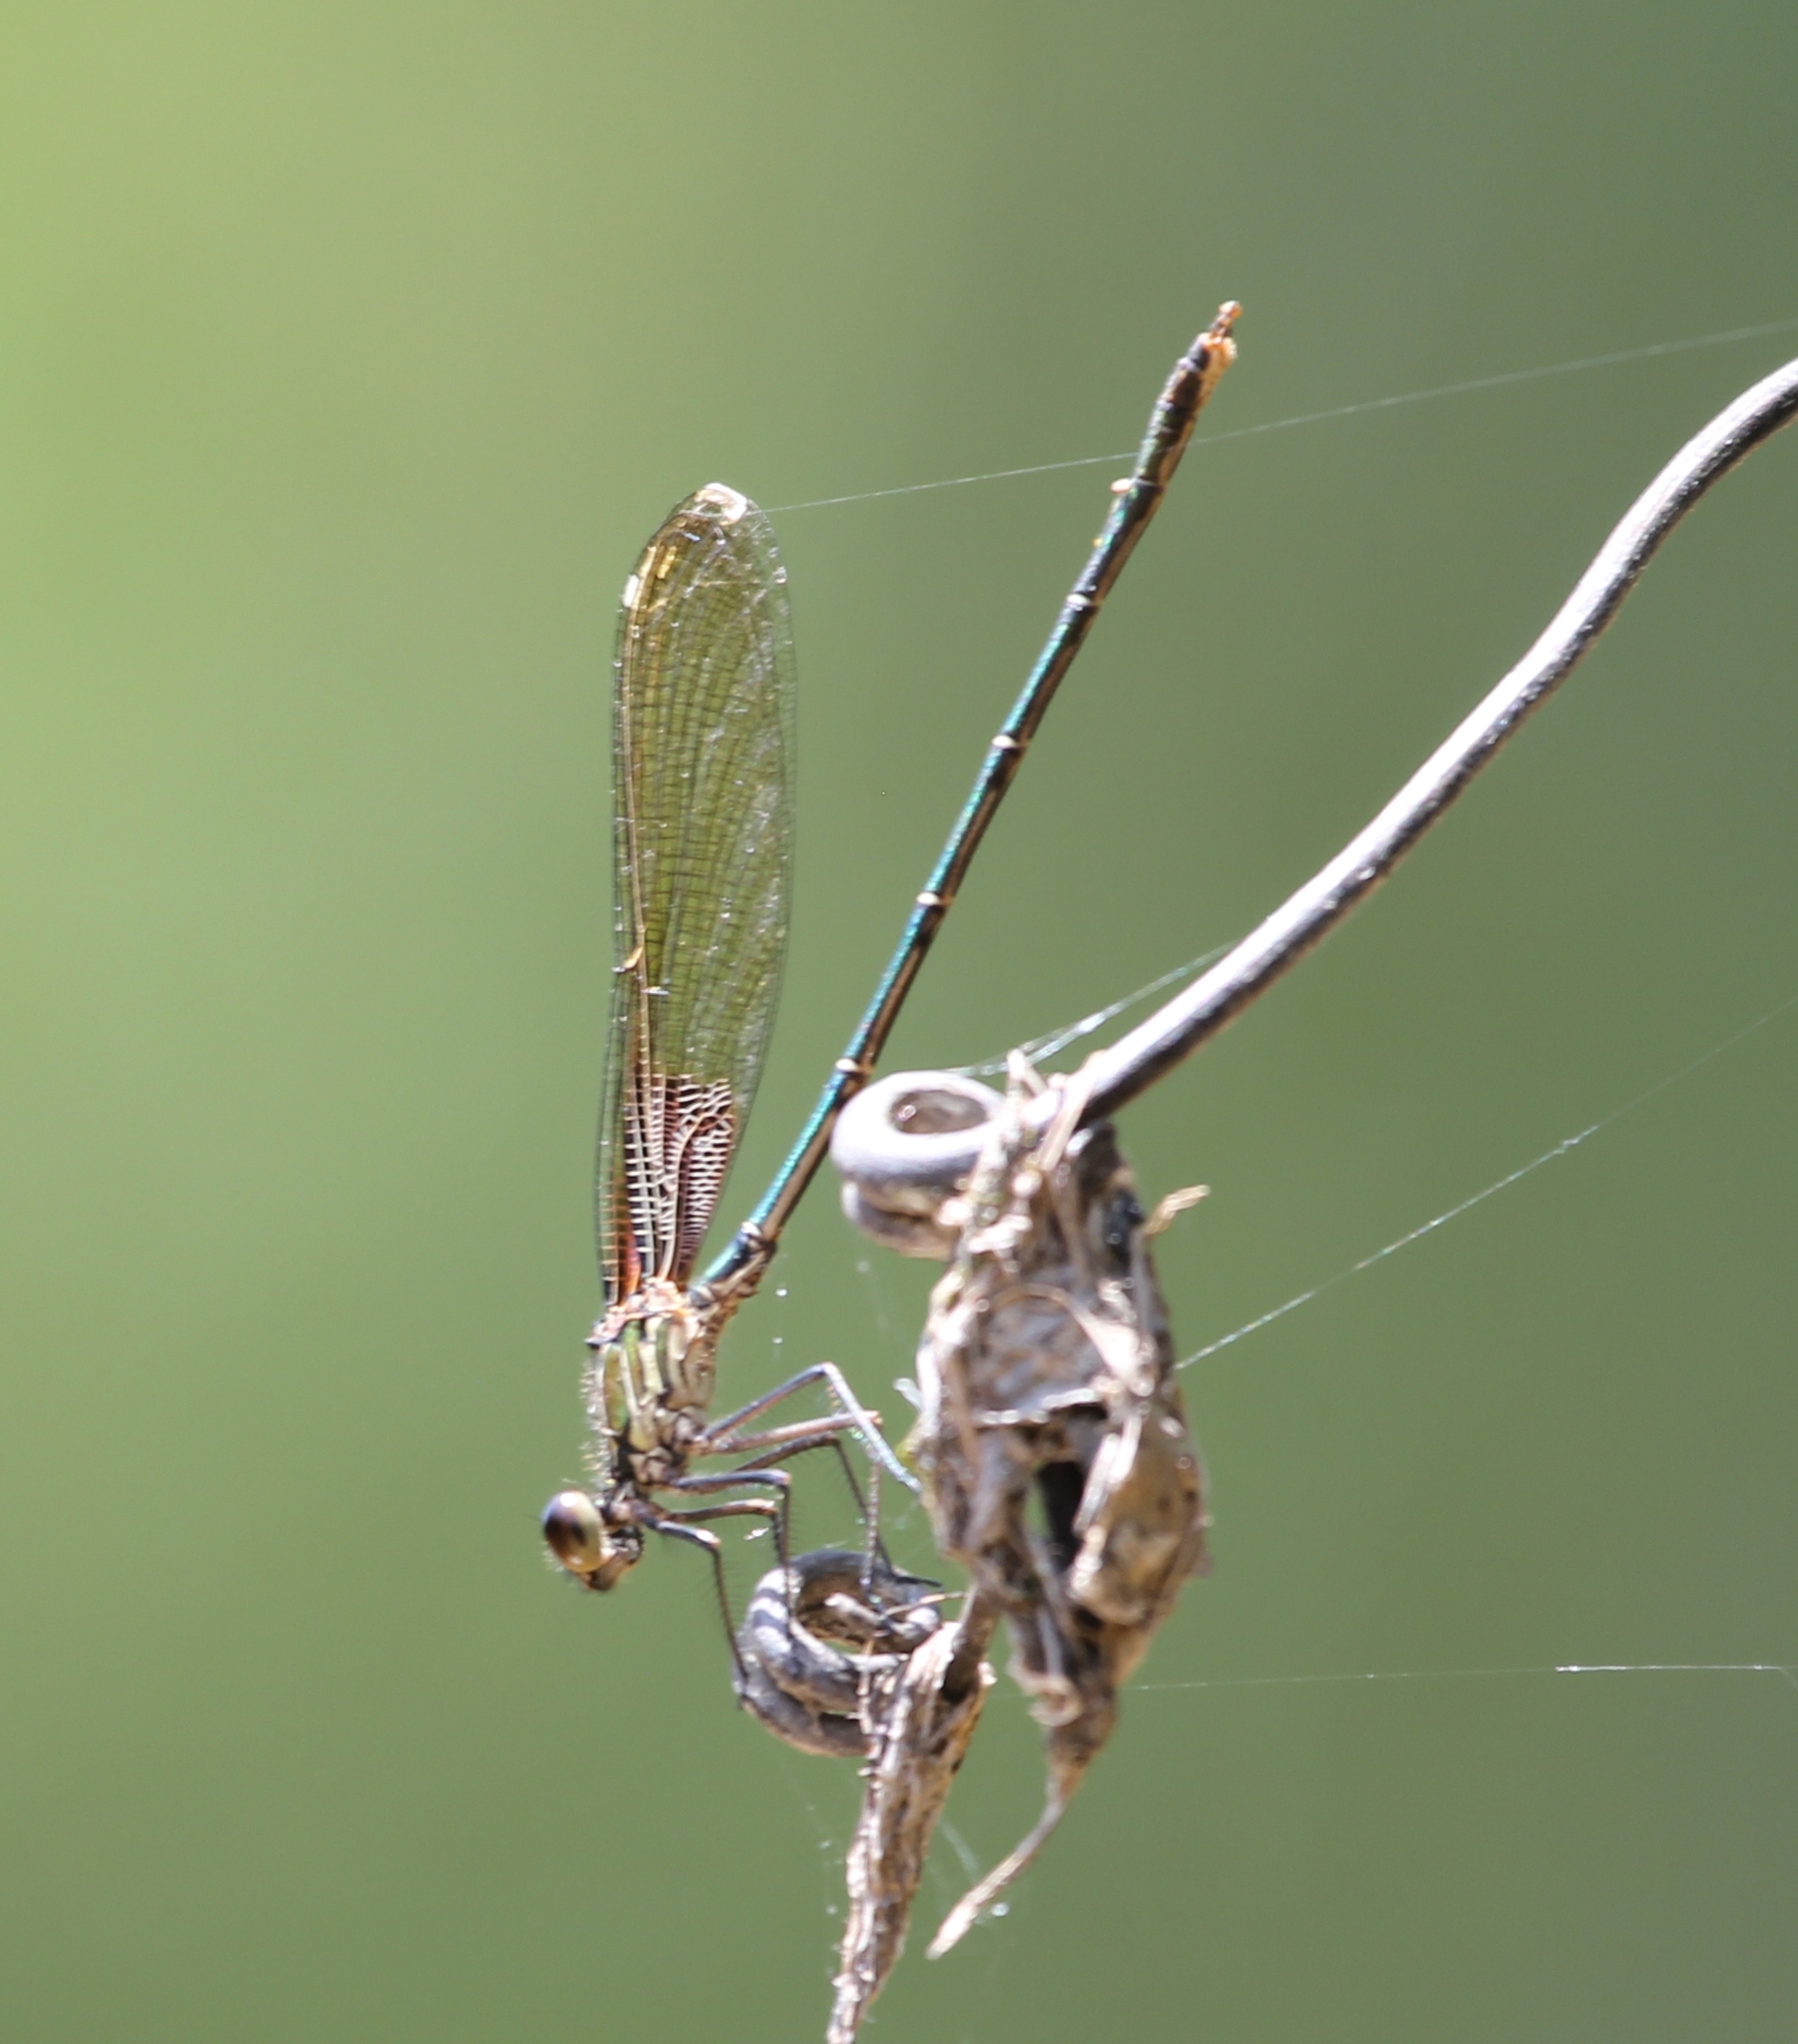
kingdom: Animalia
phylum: Arthropoda
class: Insecta
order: Odonata
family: Calopterygidae
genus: Hetaerina
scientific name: Hetaerina americana
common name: American rubyspot
